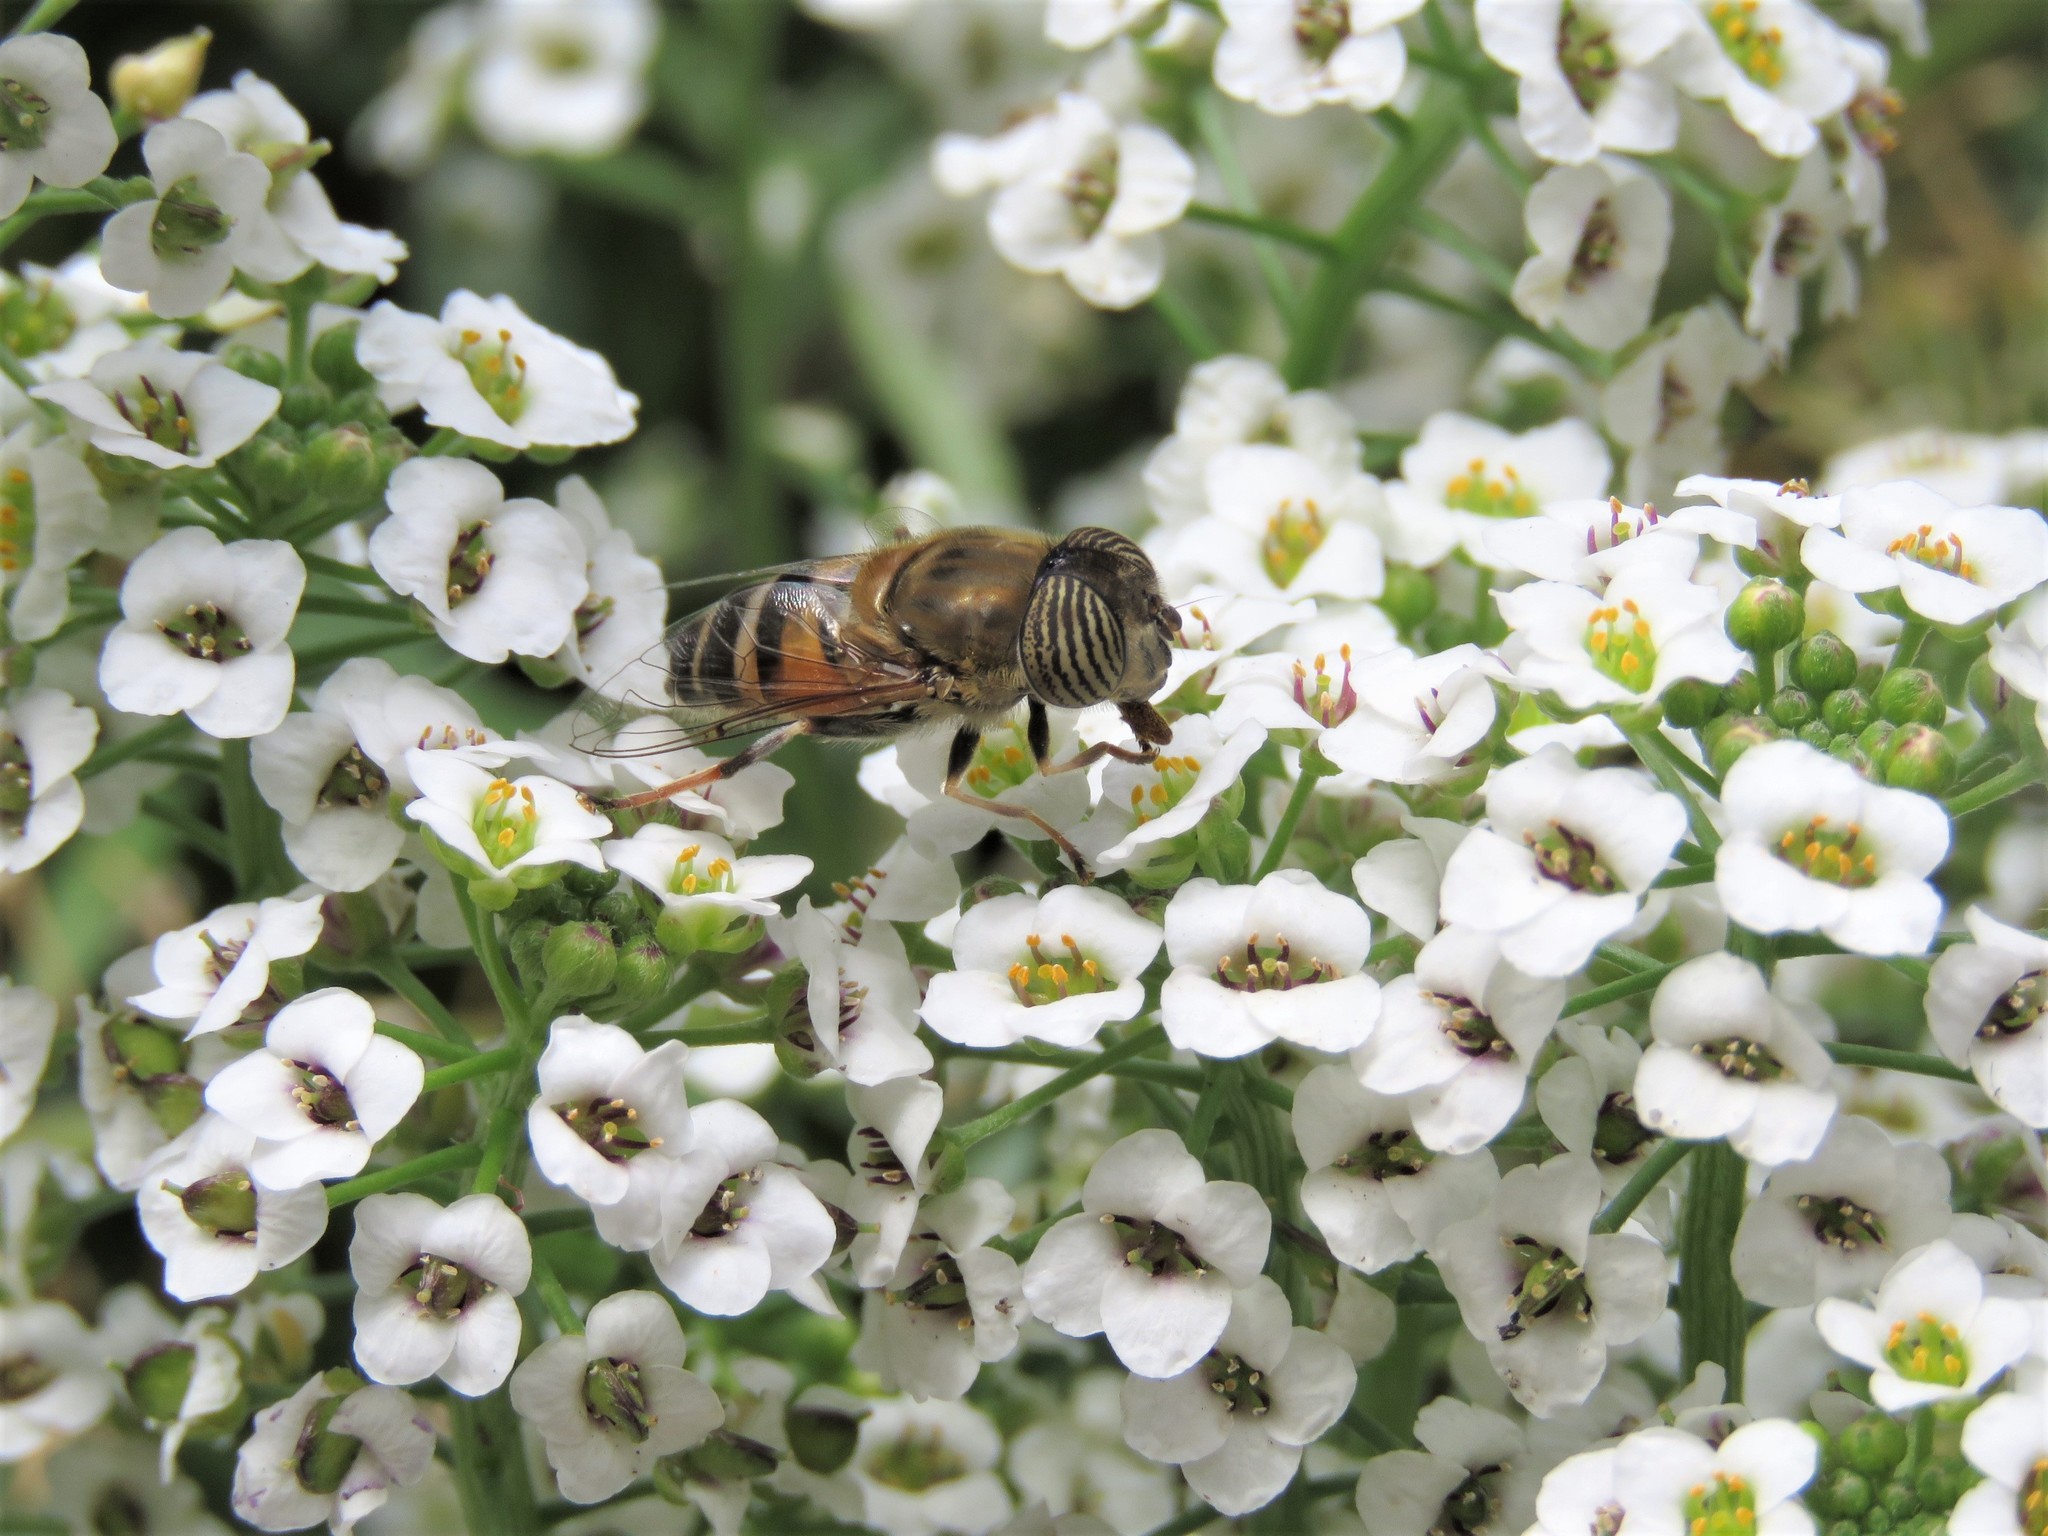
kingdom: Animalia
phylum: Arthropoda
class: Insecta
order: Diptera
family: Syrphidae
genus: Eristalinus
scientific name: Eristalinus taeniops
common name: Syrphid fly
